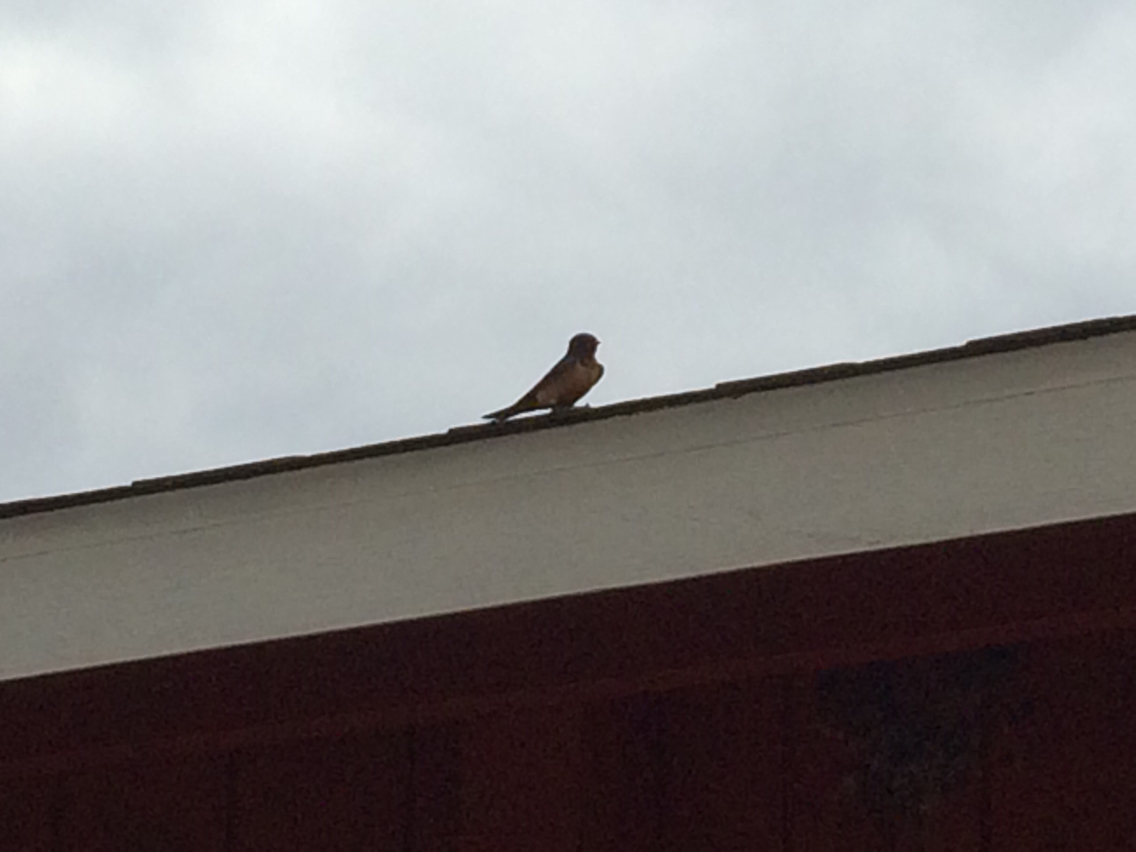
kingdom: Animalia
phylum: Chordata
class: Aves
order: Passeriformes
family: Hirundinidae
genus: Hirundo
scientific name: Hirundo rustica
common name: Barn swallow
